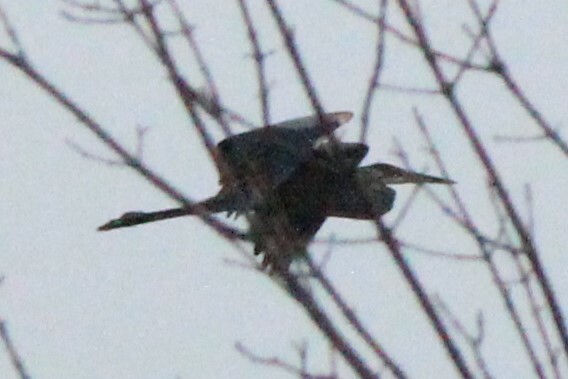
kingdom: Animalia
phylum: Chordata
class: Aves
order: Pelecaniformes
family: Ardeidae
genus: Ardea
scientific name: Ardea herodias
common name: Great blue heron
